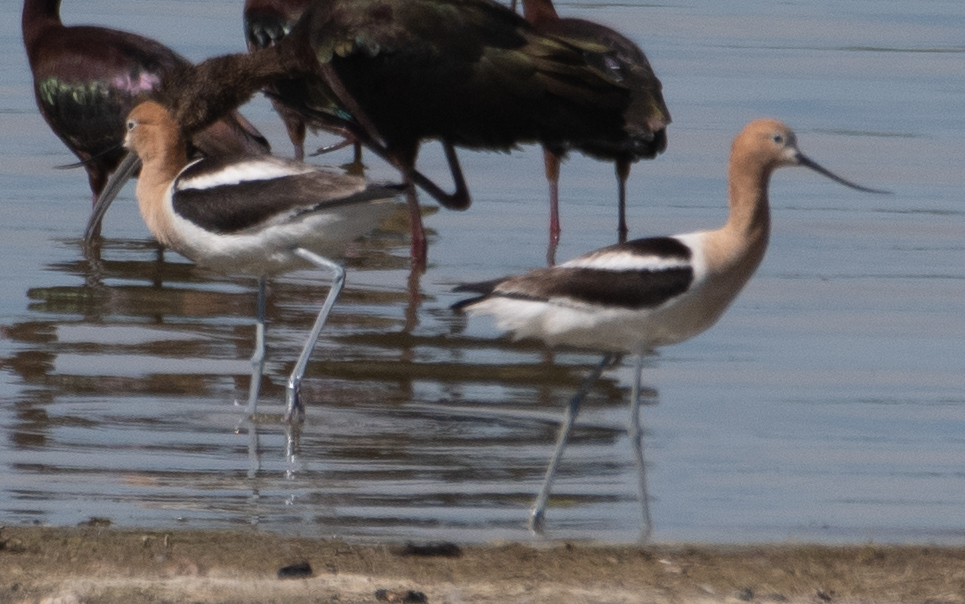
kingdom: Animalia
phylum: Chordata
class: Aves
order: Charadriiformes
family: Recurvirostridae
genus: Recurvirostra
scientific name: Recurvirostra americana
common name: American avocet
